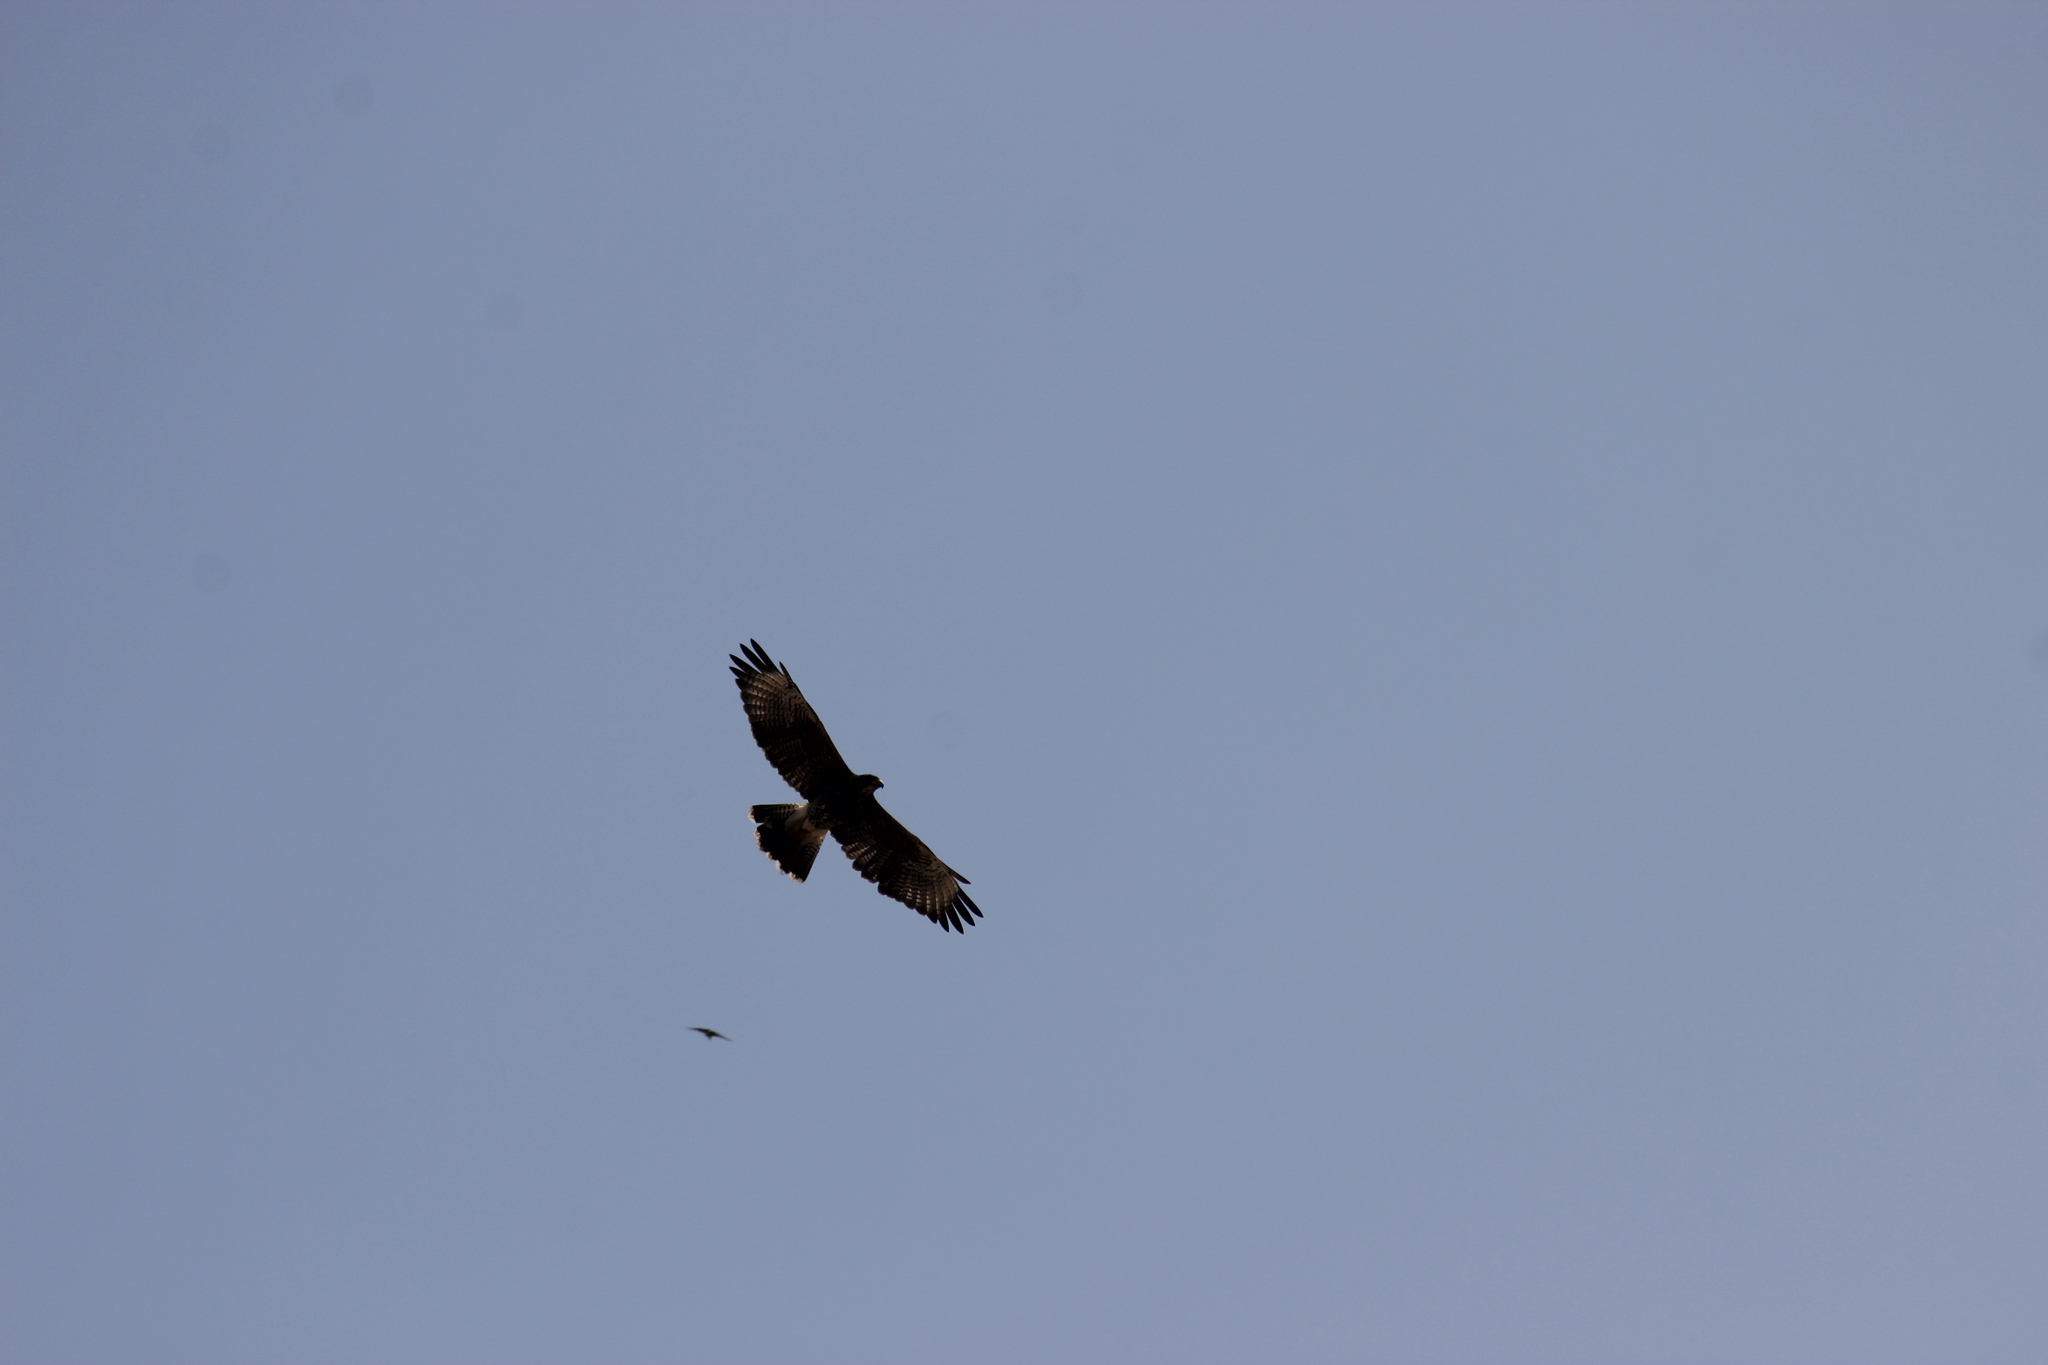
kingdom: Animalia
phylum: Chordata
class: Aves
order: Accipitriformes
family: Accipitridae
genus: Parabuteo
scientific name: Parabuteo unicinctus
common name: Harris's hawk
